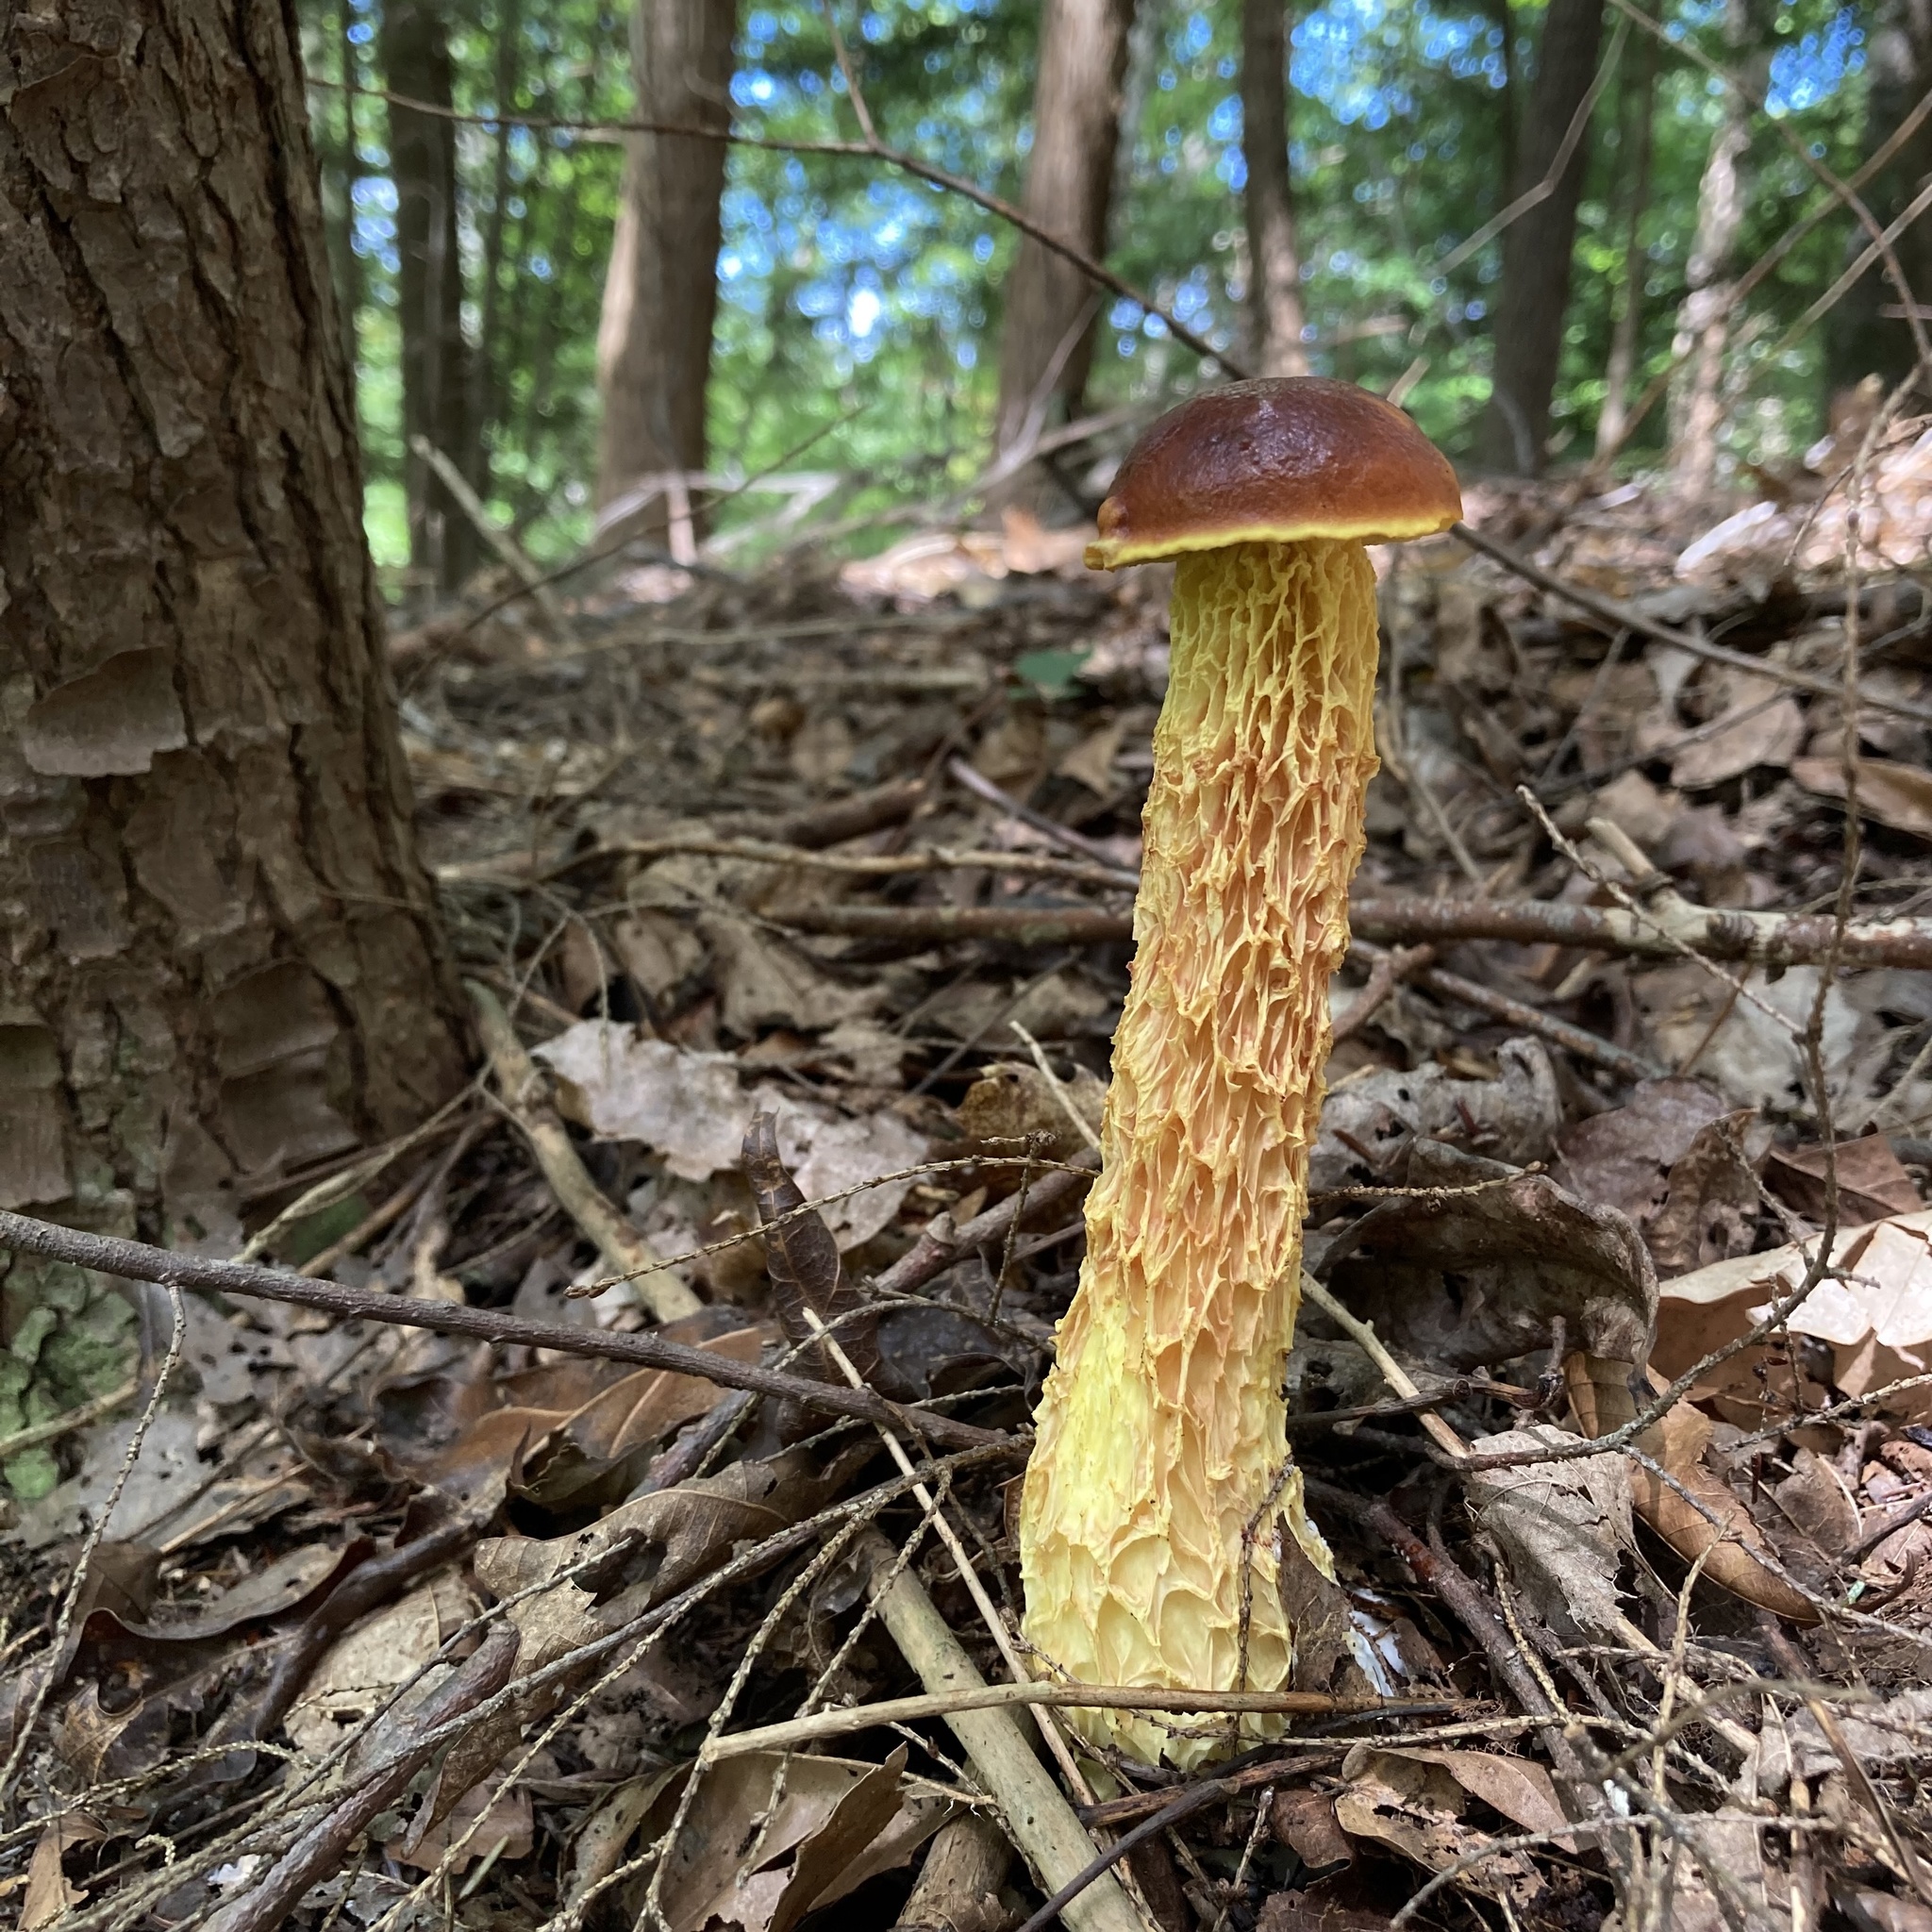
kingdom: Fungi
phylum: Basidiomycota
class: Agaricomycetes
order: Boletales
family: Boletaceae
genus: Aureoboletus
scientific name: Aureoboletus betula
